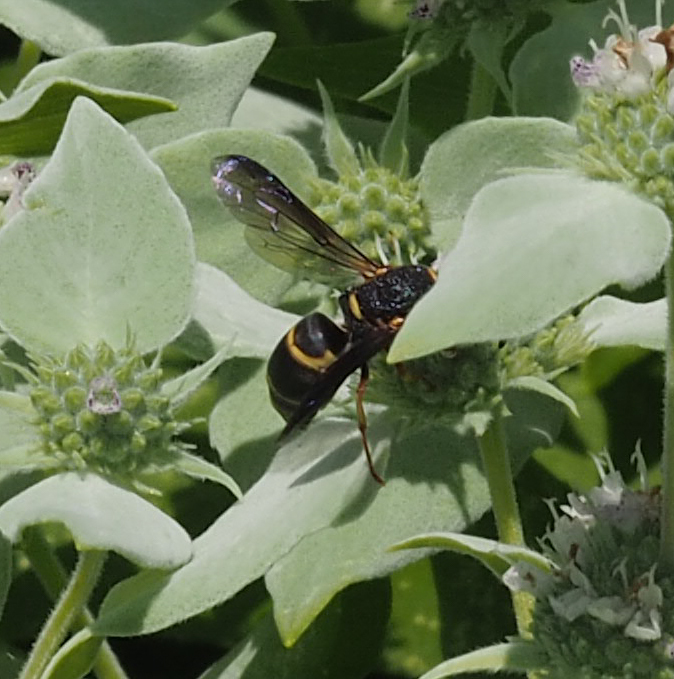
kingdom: Animalia
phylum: Arthropoda
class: Insecta
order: Hymenoptera
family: Eumenidae
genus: Euodynerus
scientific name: Euodynerus hidalgo
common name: Wasp
